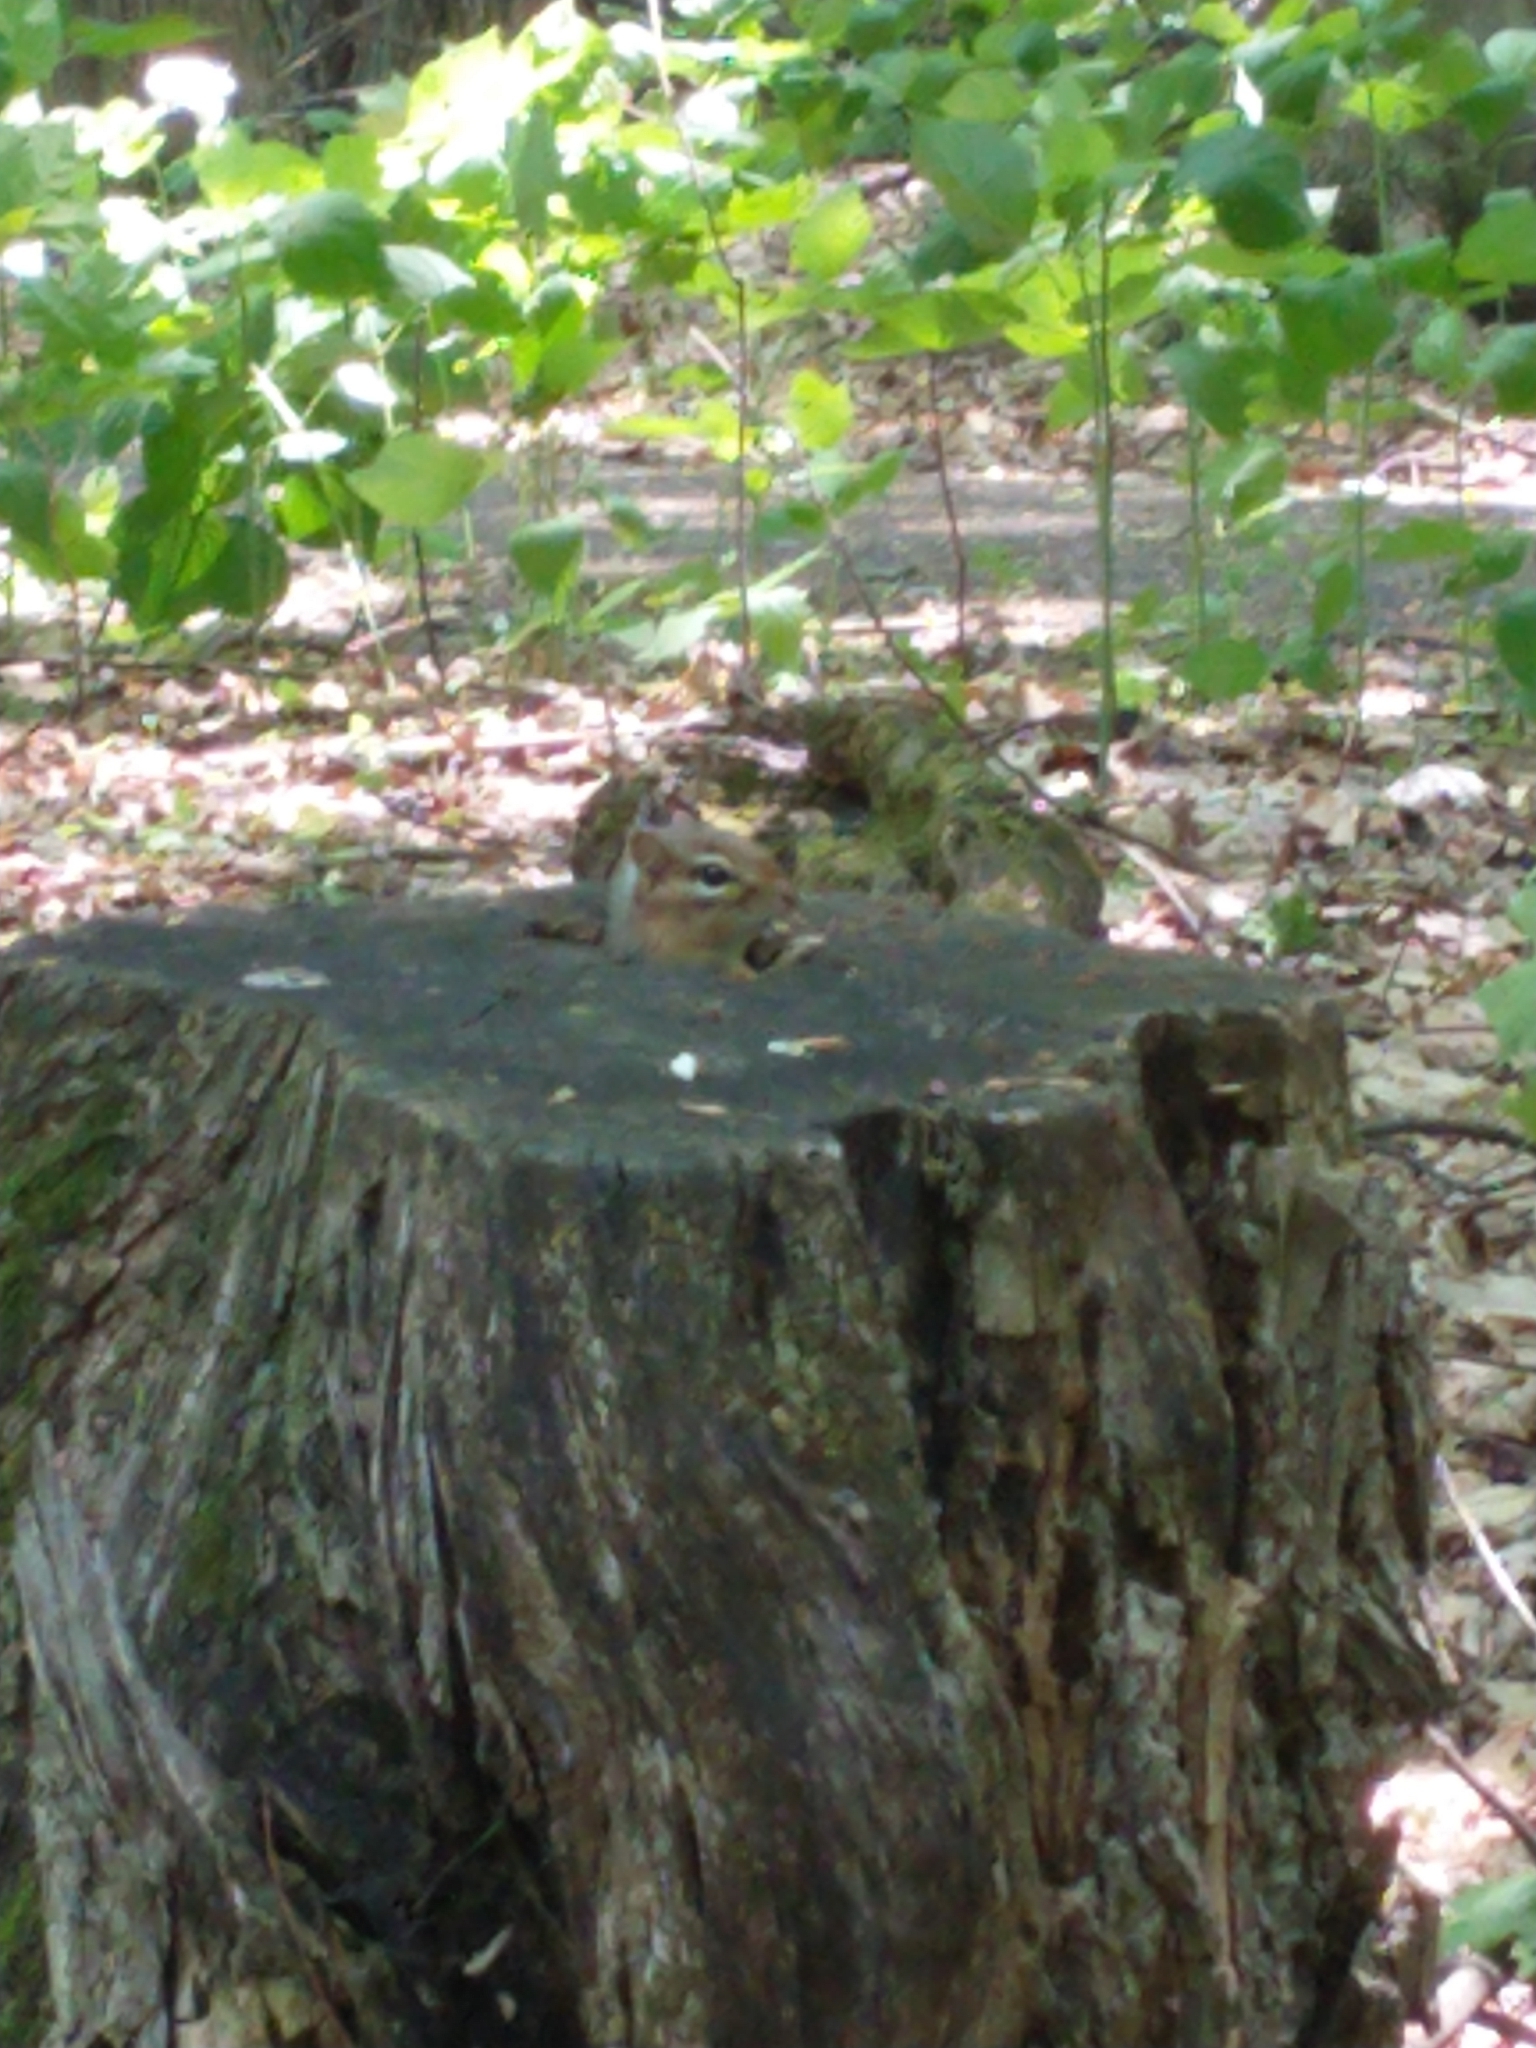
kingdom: Animalia
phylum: Chordata
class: Mammalia
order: Rodentia
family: Sciuridae
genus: Tamias
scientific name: Tamias striatus
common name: Eastern chipmunk
